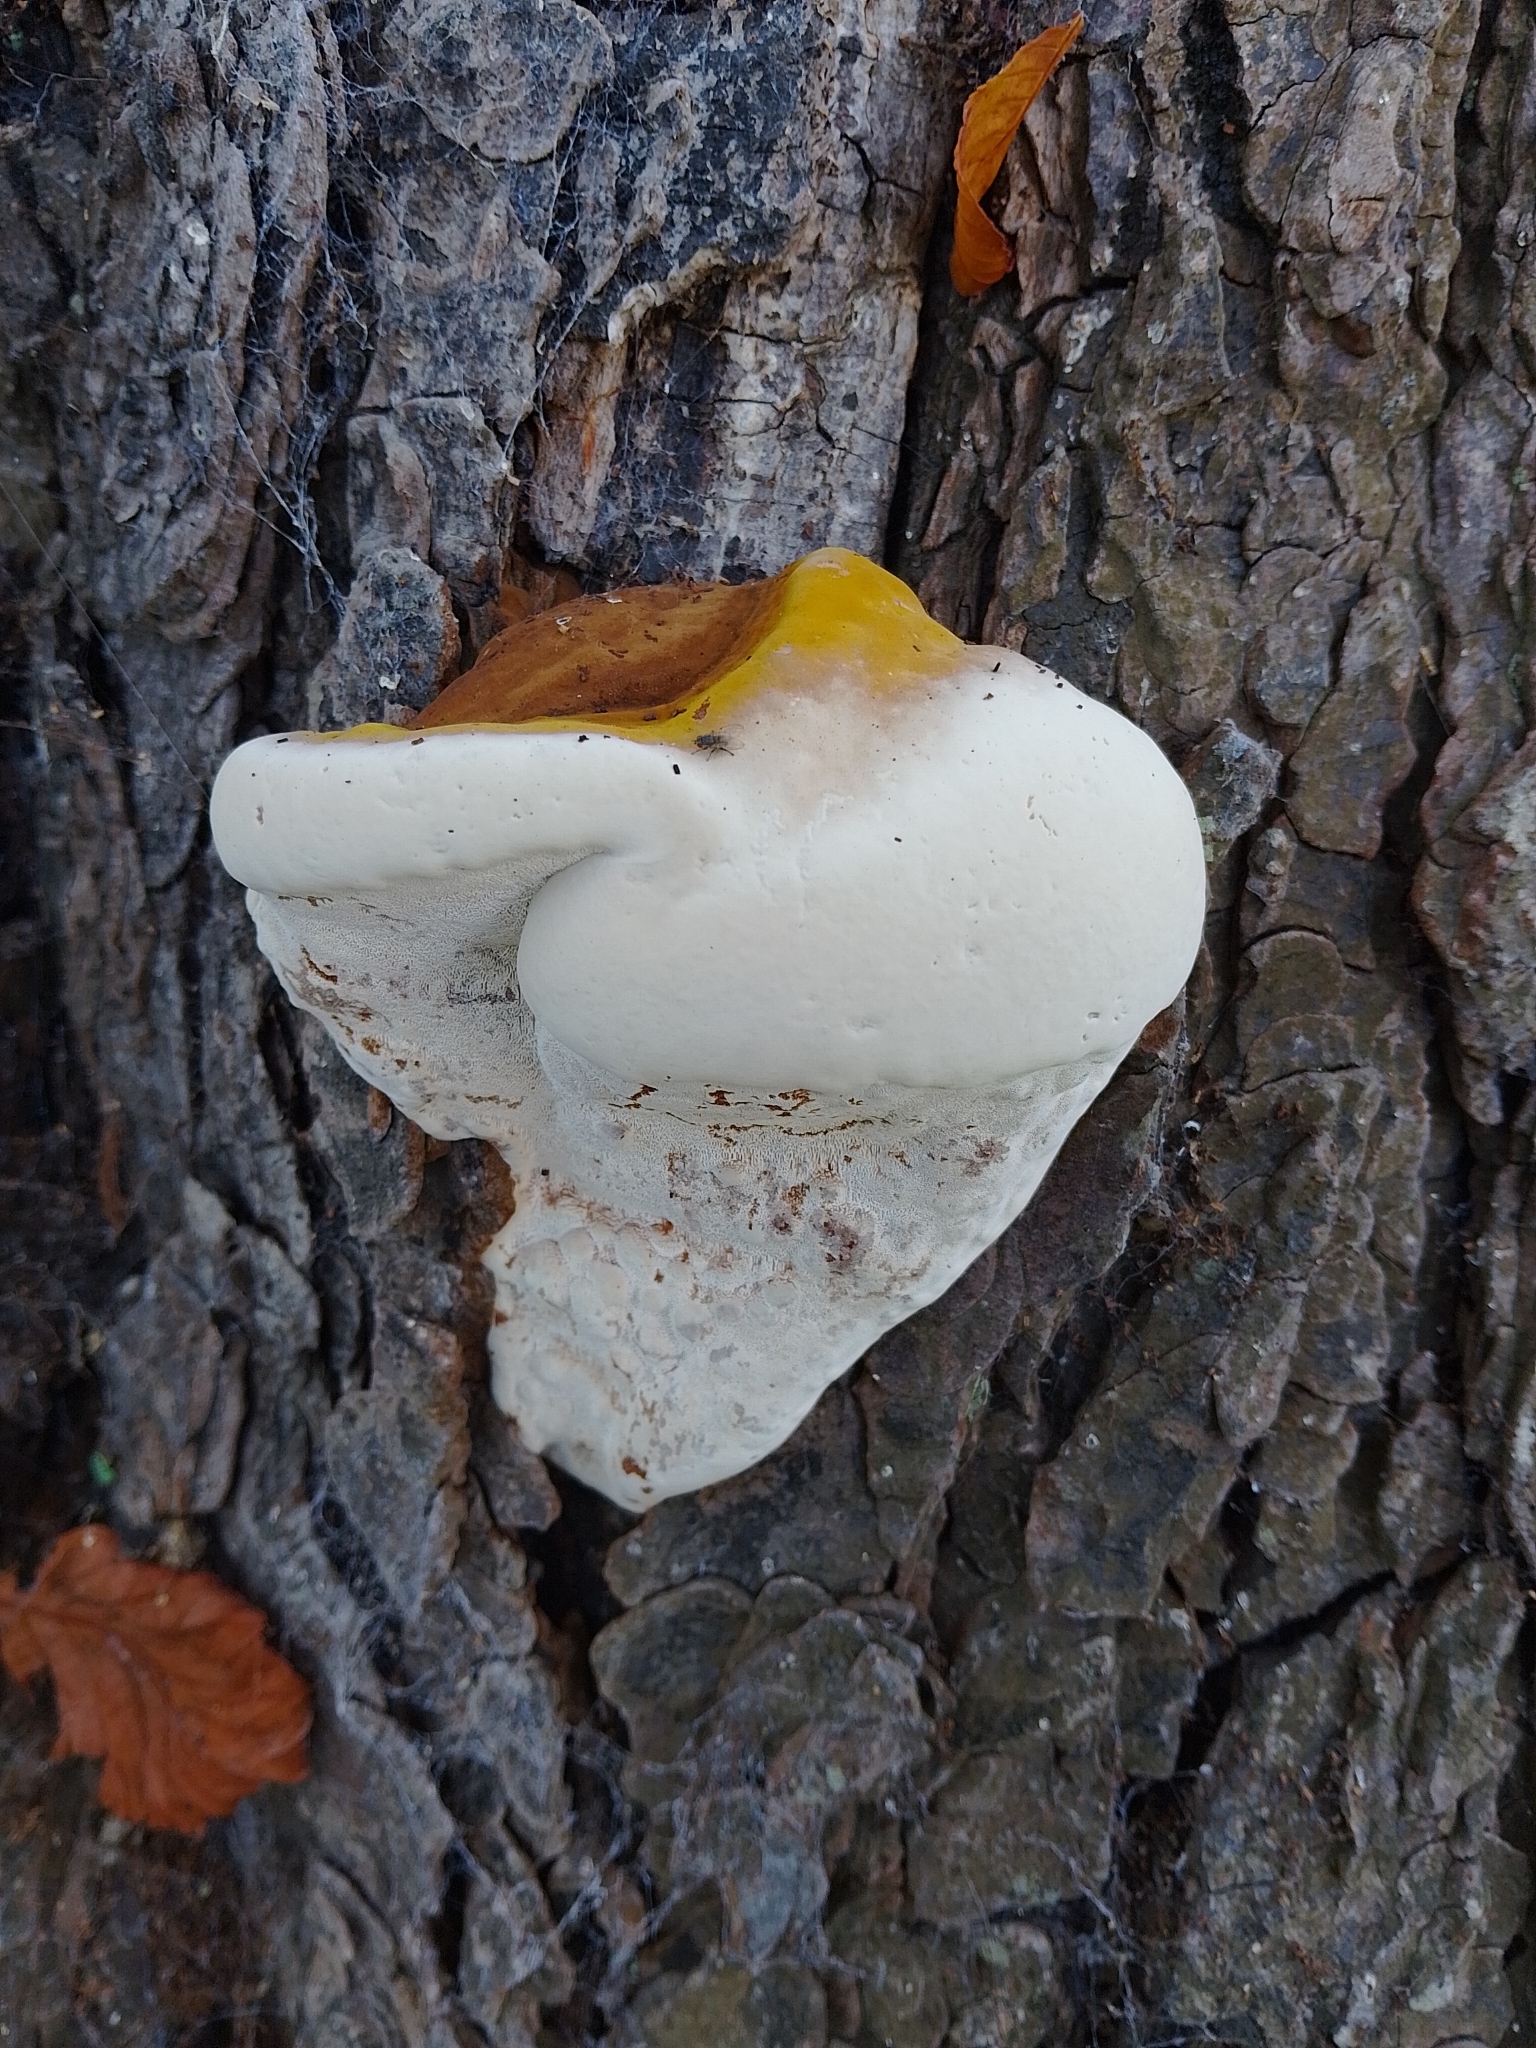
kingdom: Fungi
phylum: Basidiomycota
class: Agaricomycetes
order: Polyporales
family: Polyporaceae
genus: Ganoderma
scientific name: Ganoderma resinaceum
